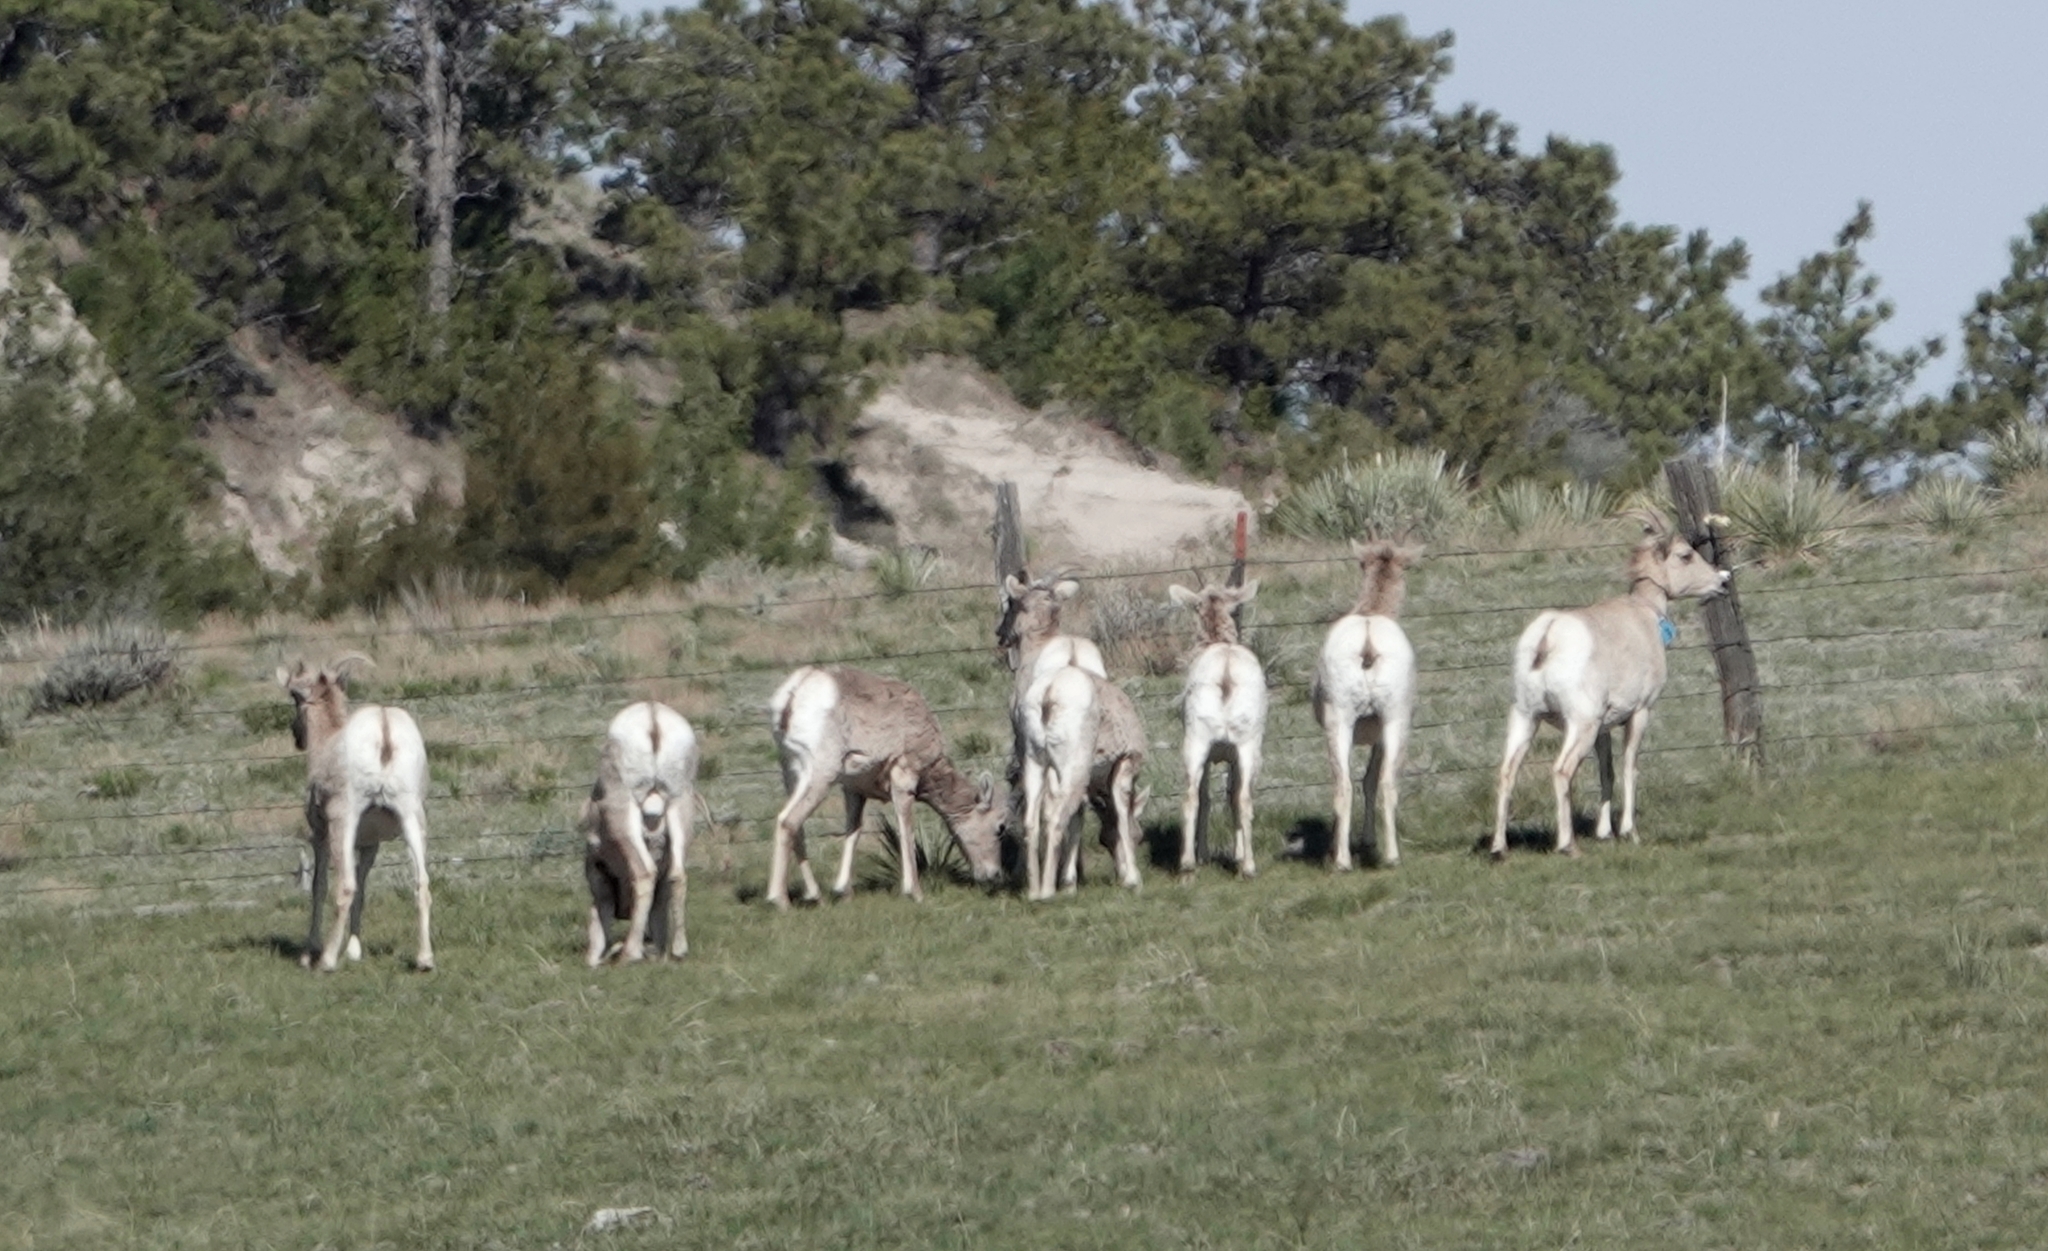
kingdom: Animalia
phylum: Chordata
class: Mammalia
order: Artiodactyla
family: Bovidae
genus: Ovis
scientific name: Ovis canadensis
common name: Bighorn sheep
